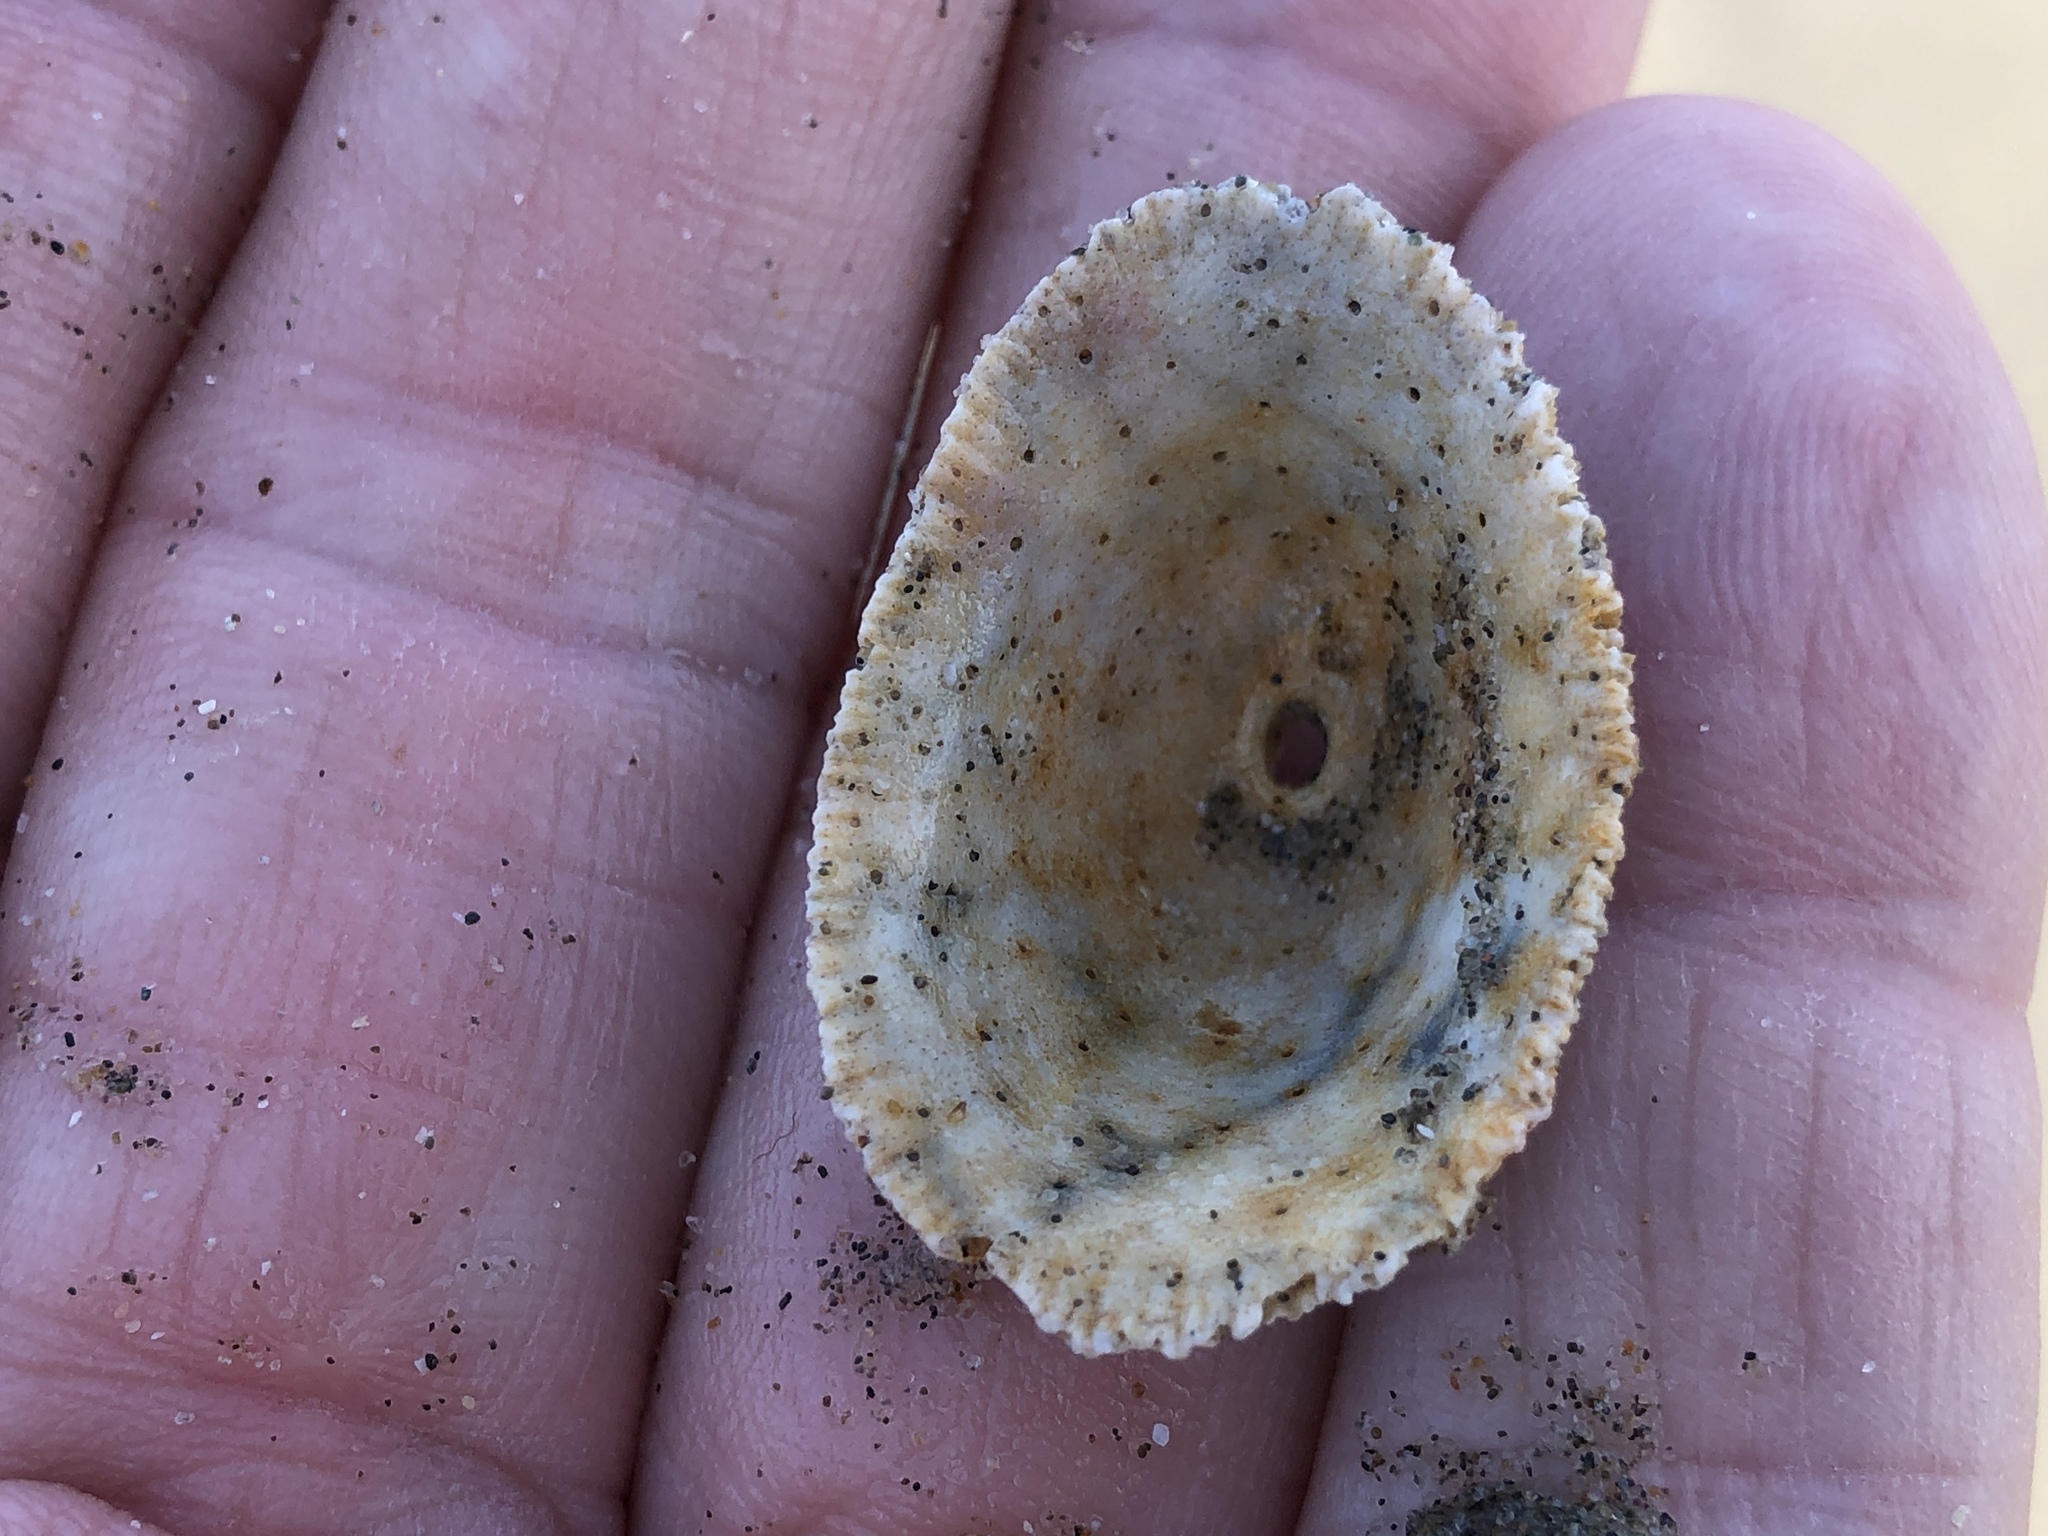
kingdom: Animalia
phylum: Mollusca
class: Gastropoda
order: Lepetellida
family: Fissurellidae
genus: Diodora
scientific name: Diodora aspera
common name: Rough keyhole limpet
